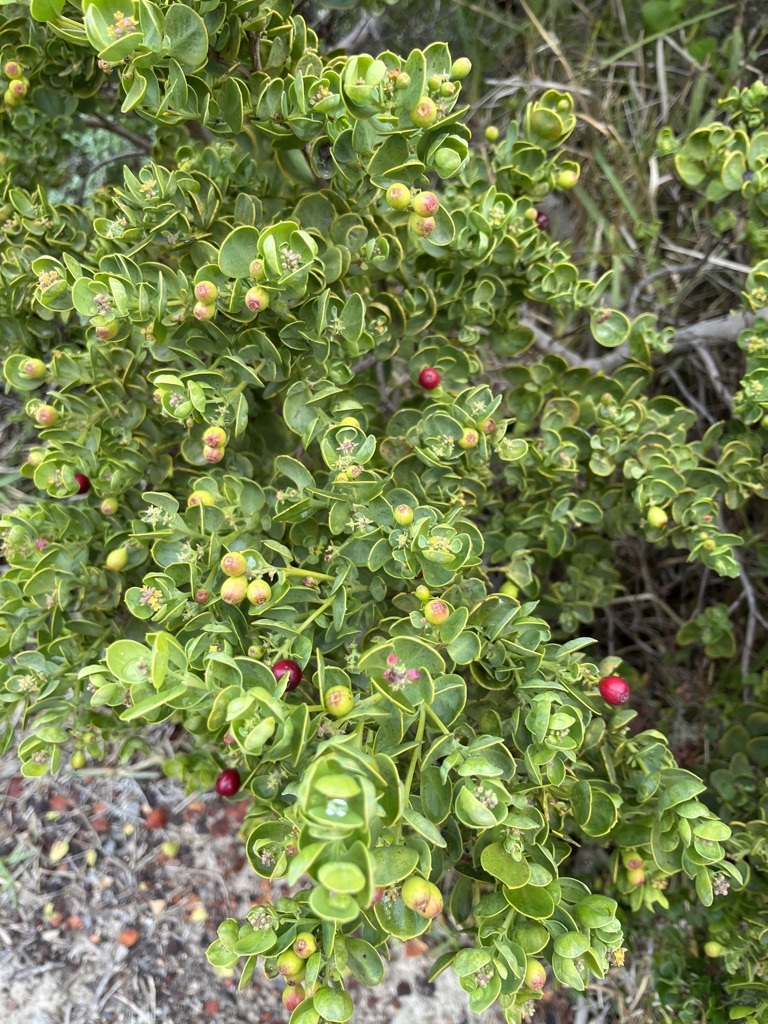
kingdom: Plantae
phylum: Tracheophyta
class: Magnoliopsida
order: Santalales
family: Santalaceae
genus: Osyris
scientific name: Osyris compressa
